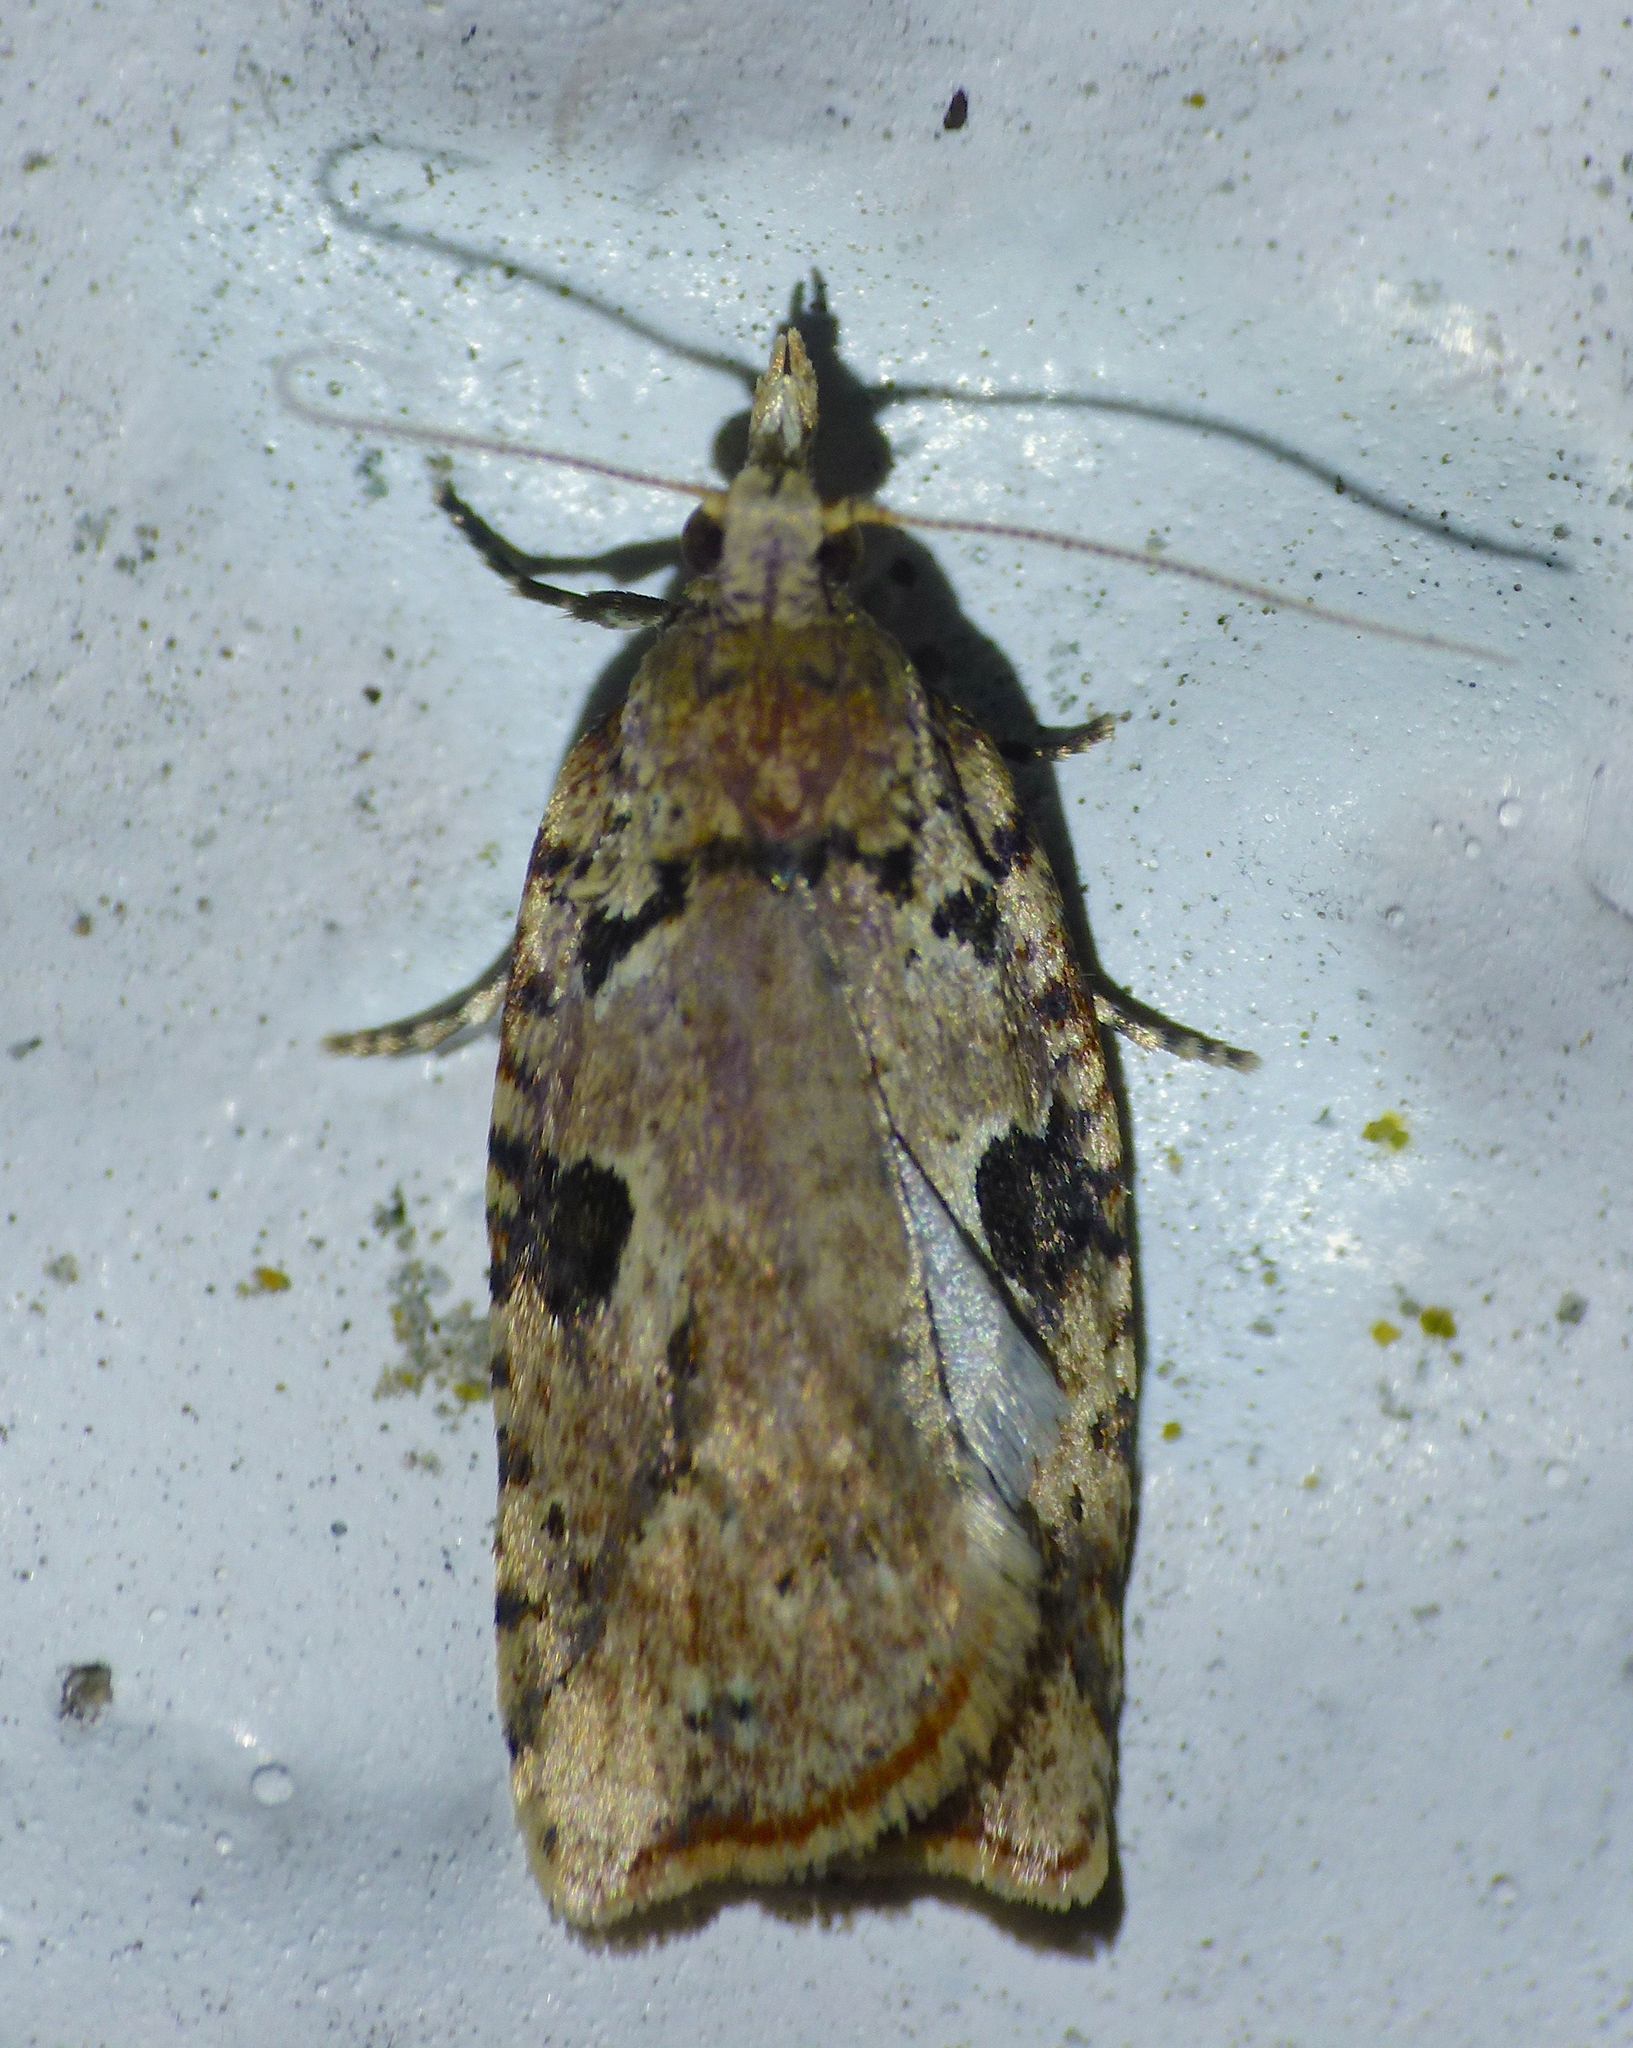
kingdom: Animalia
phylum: Arthropoda
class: Insecta
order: Lepidoptera
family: Tortricidae
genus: Ctenopseustis
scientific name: Ctenopseustis obliquana
